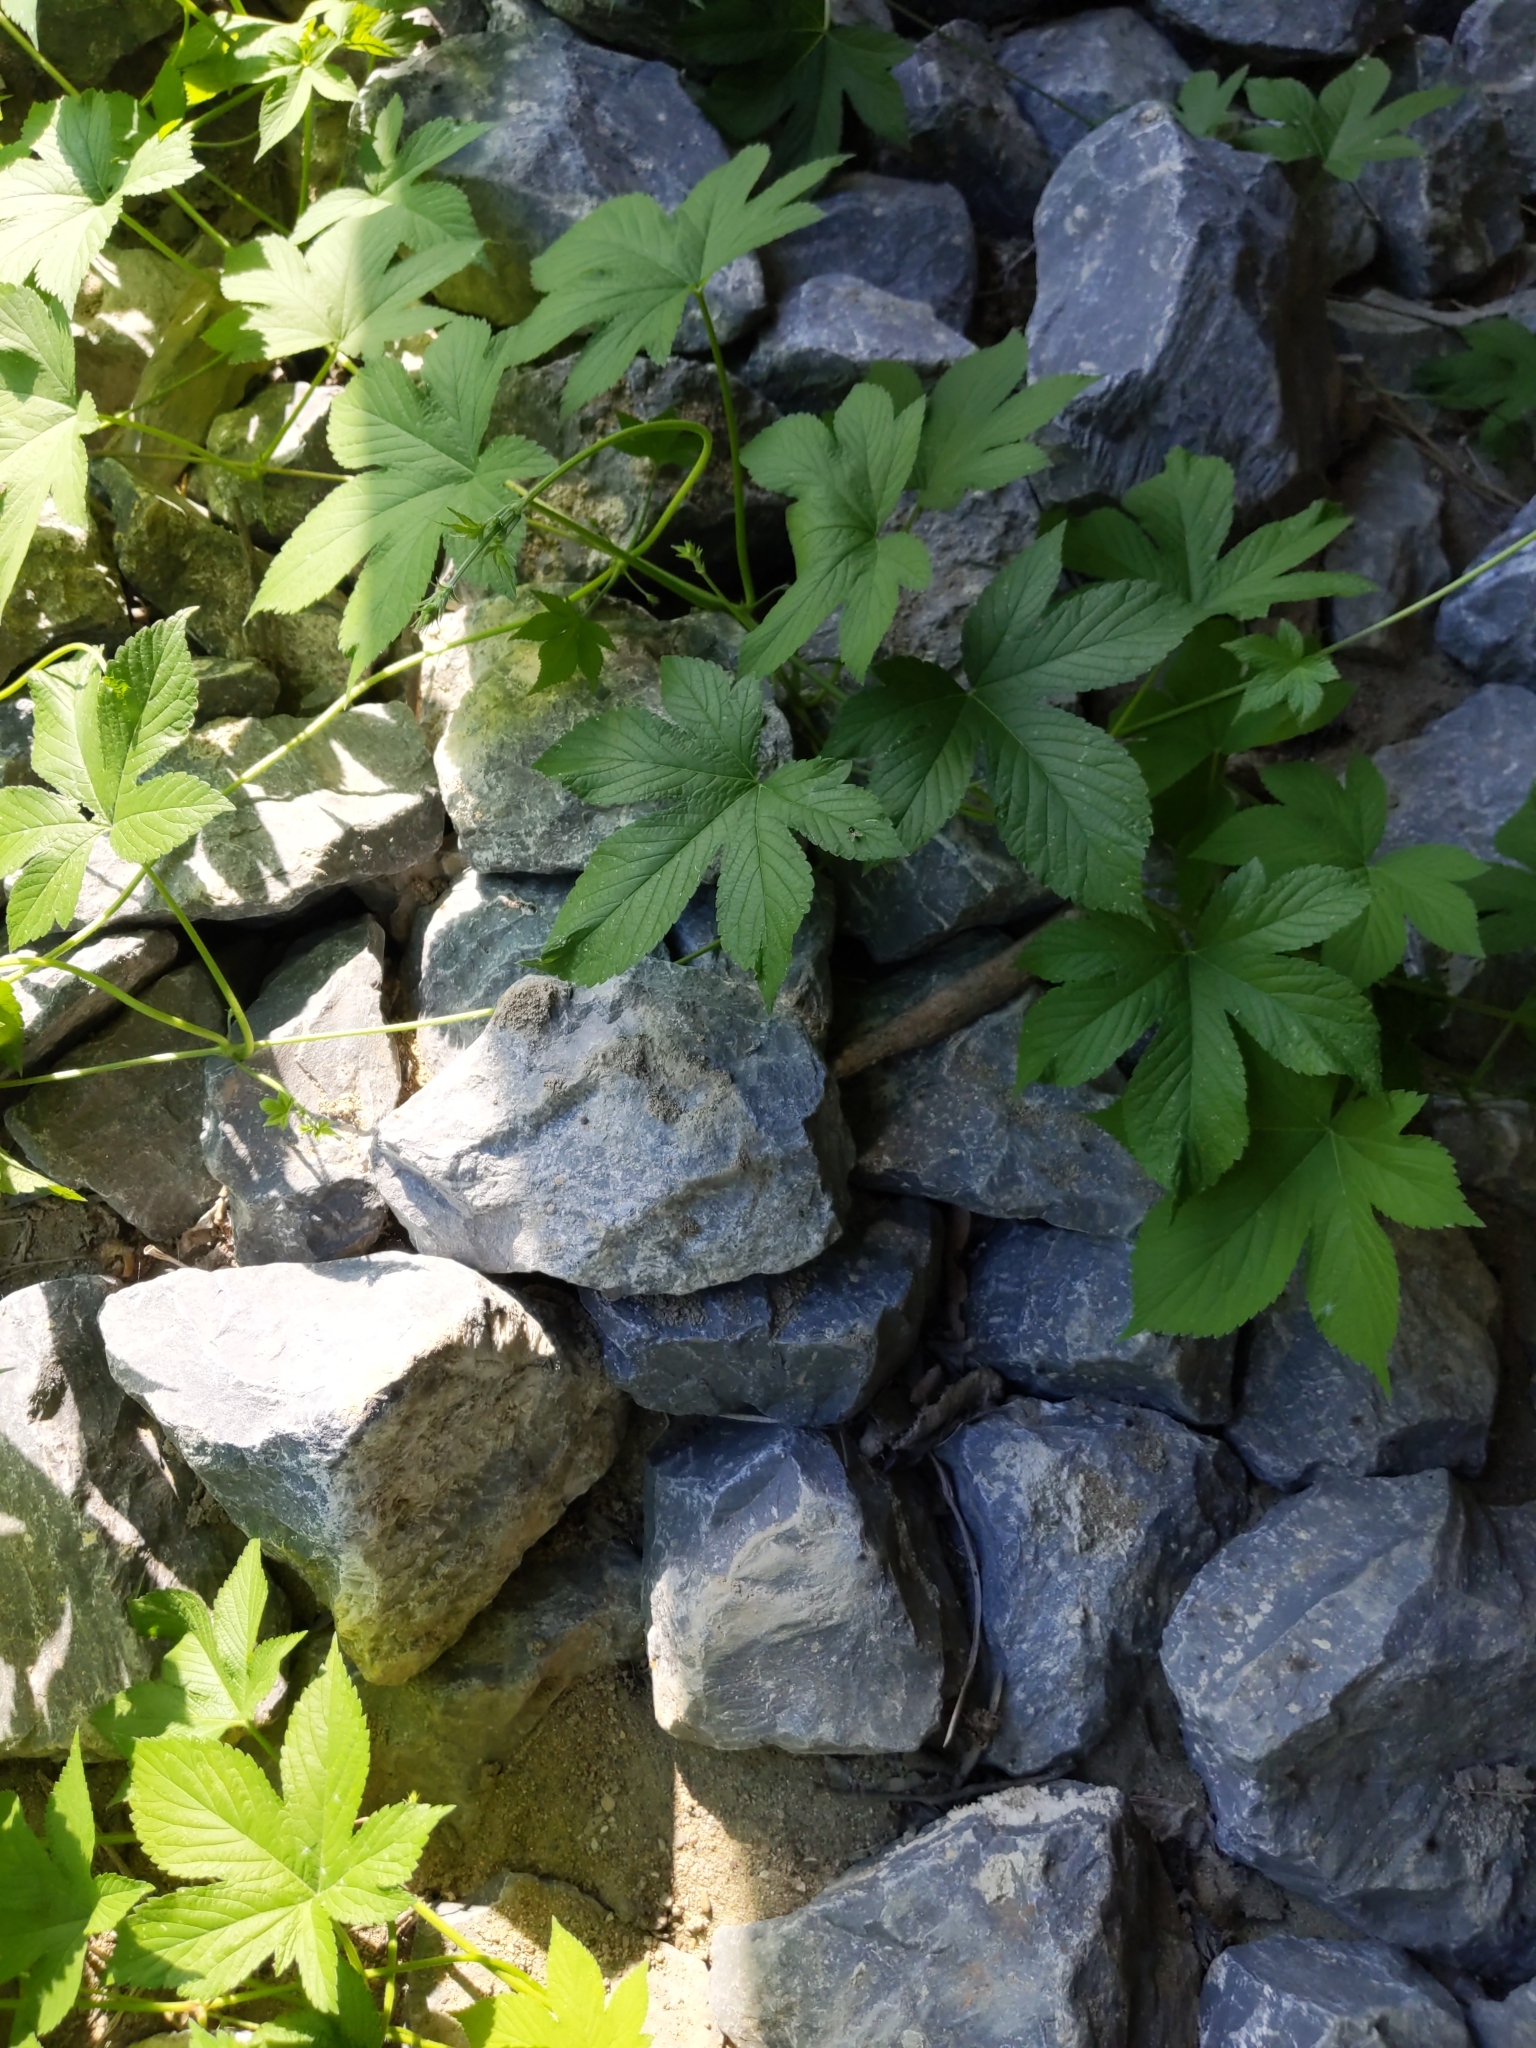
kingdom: Plantae
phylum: Tracheophyta
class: Magnoliopsida
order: Rosales
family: Cannabaceae
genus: Humulus
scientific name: Humulus scandens
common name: Japanese hop
